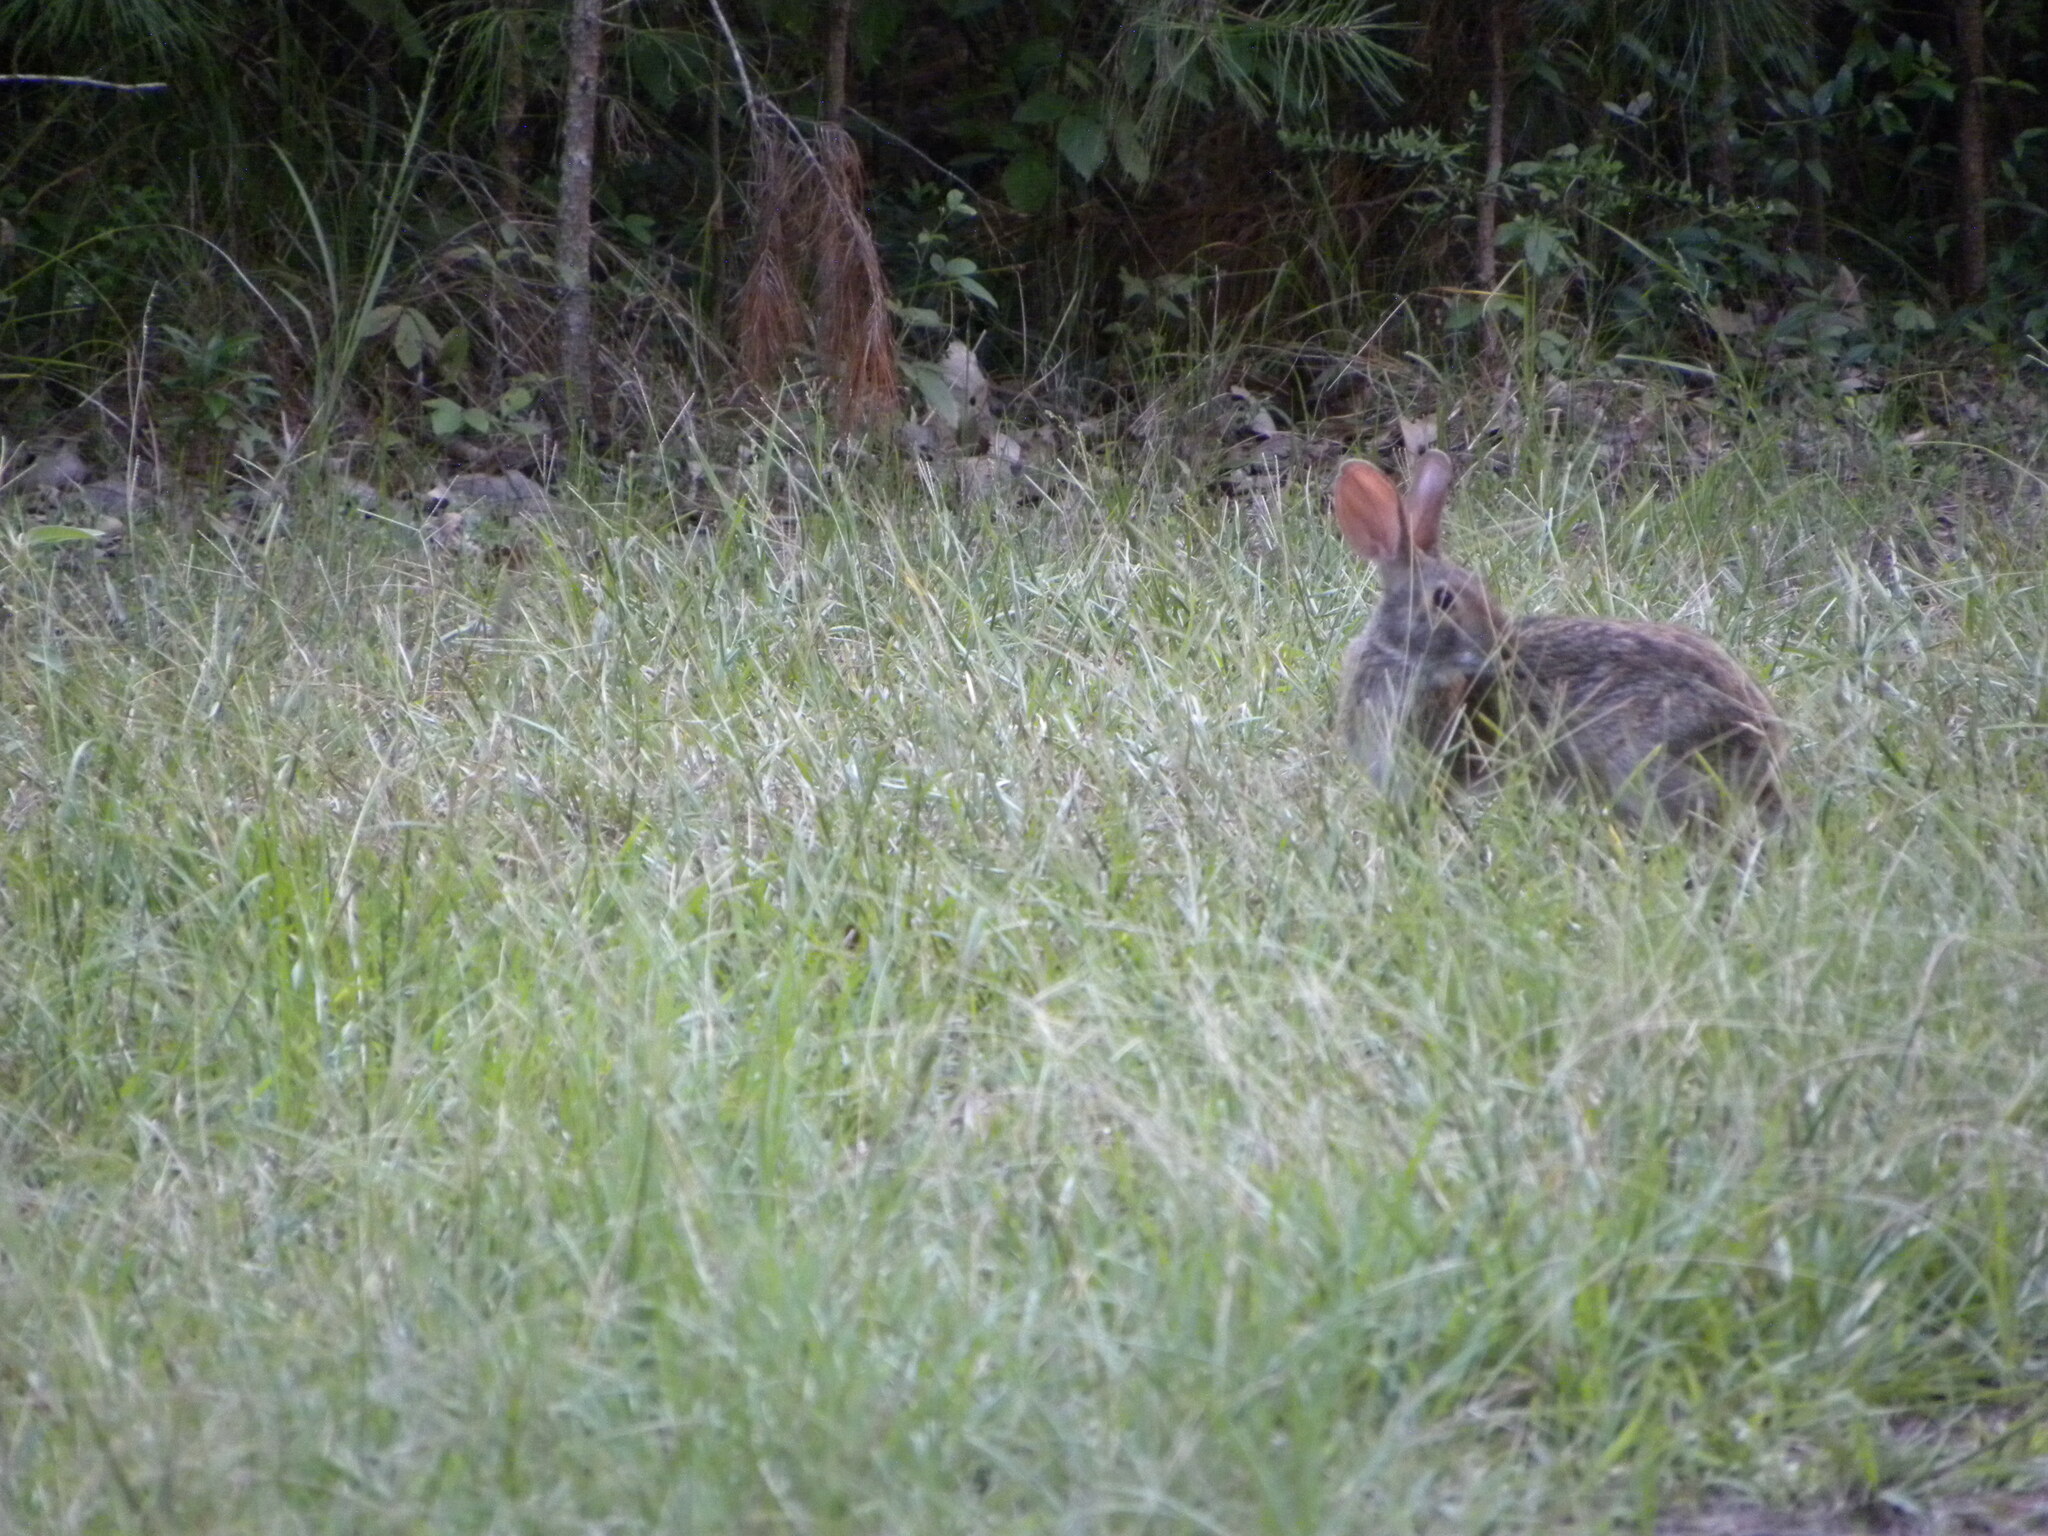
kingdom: Animalia
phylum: Chordata
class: Mammalia
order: Lagomorpha
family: Leporidae
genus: Sylvilagus
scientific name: Sylvilagus floridanus
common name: Eastern cottontail
